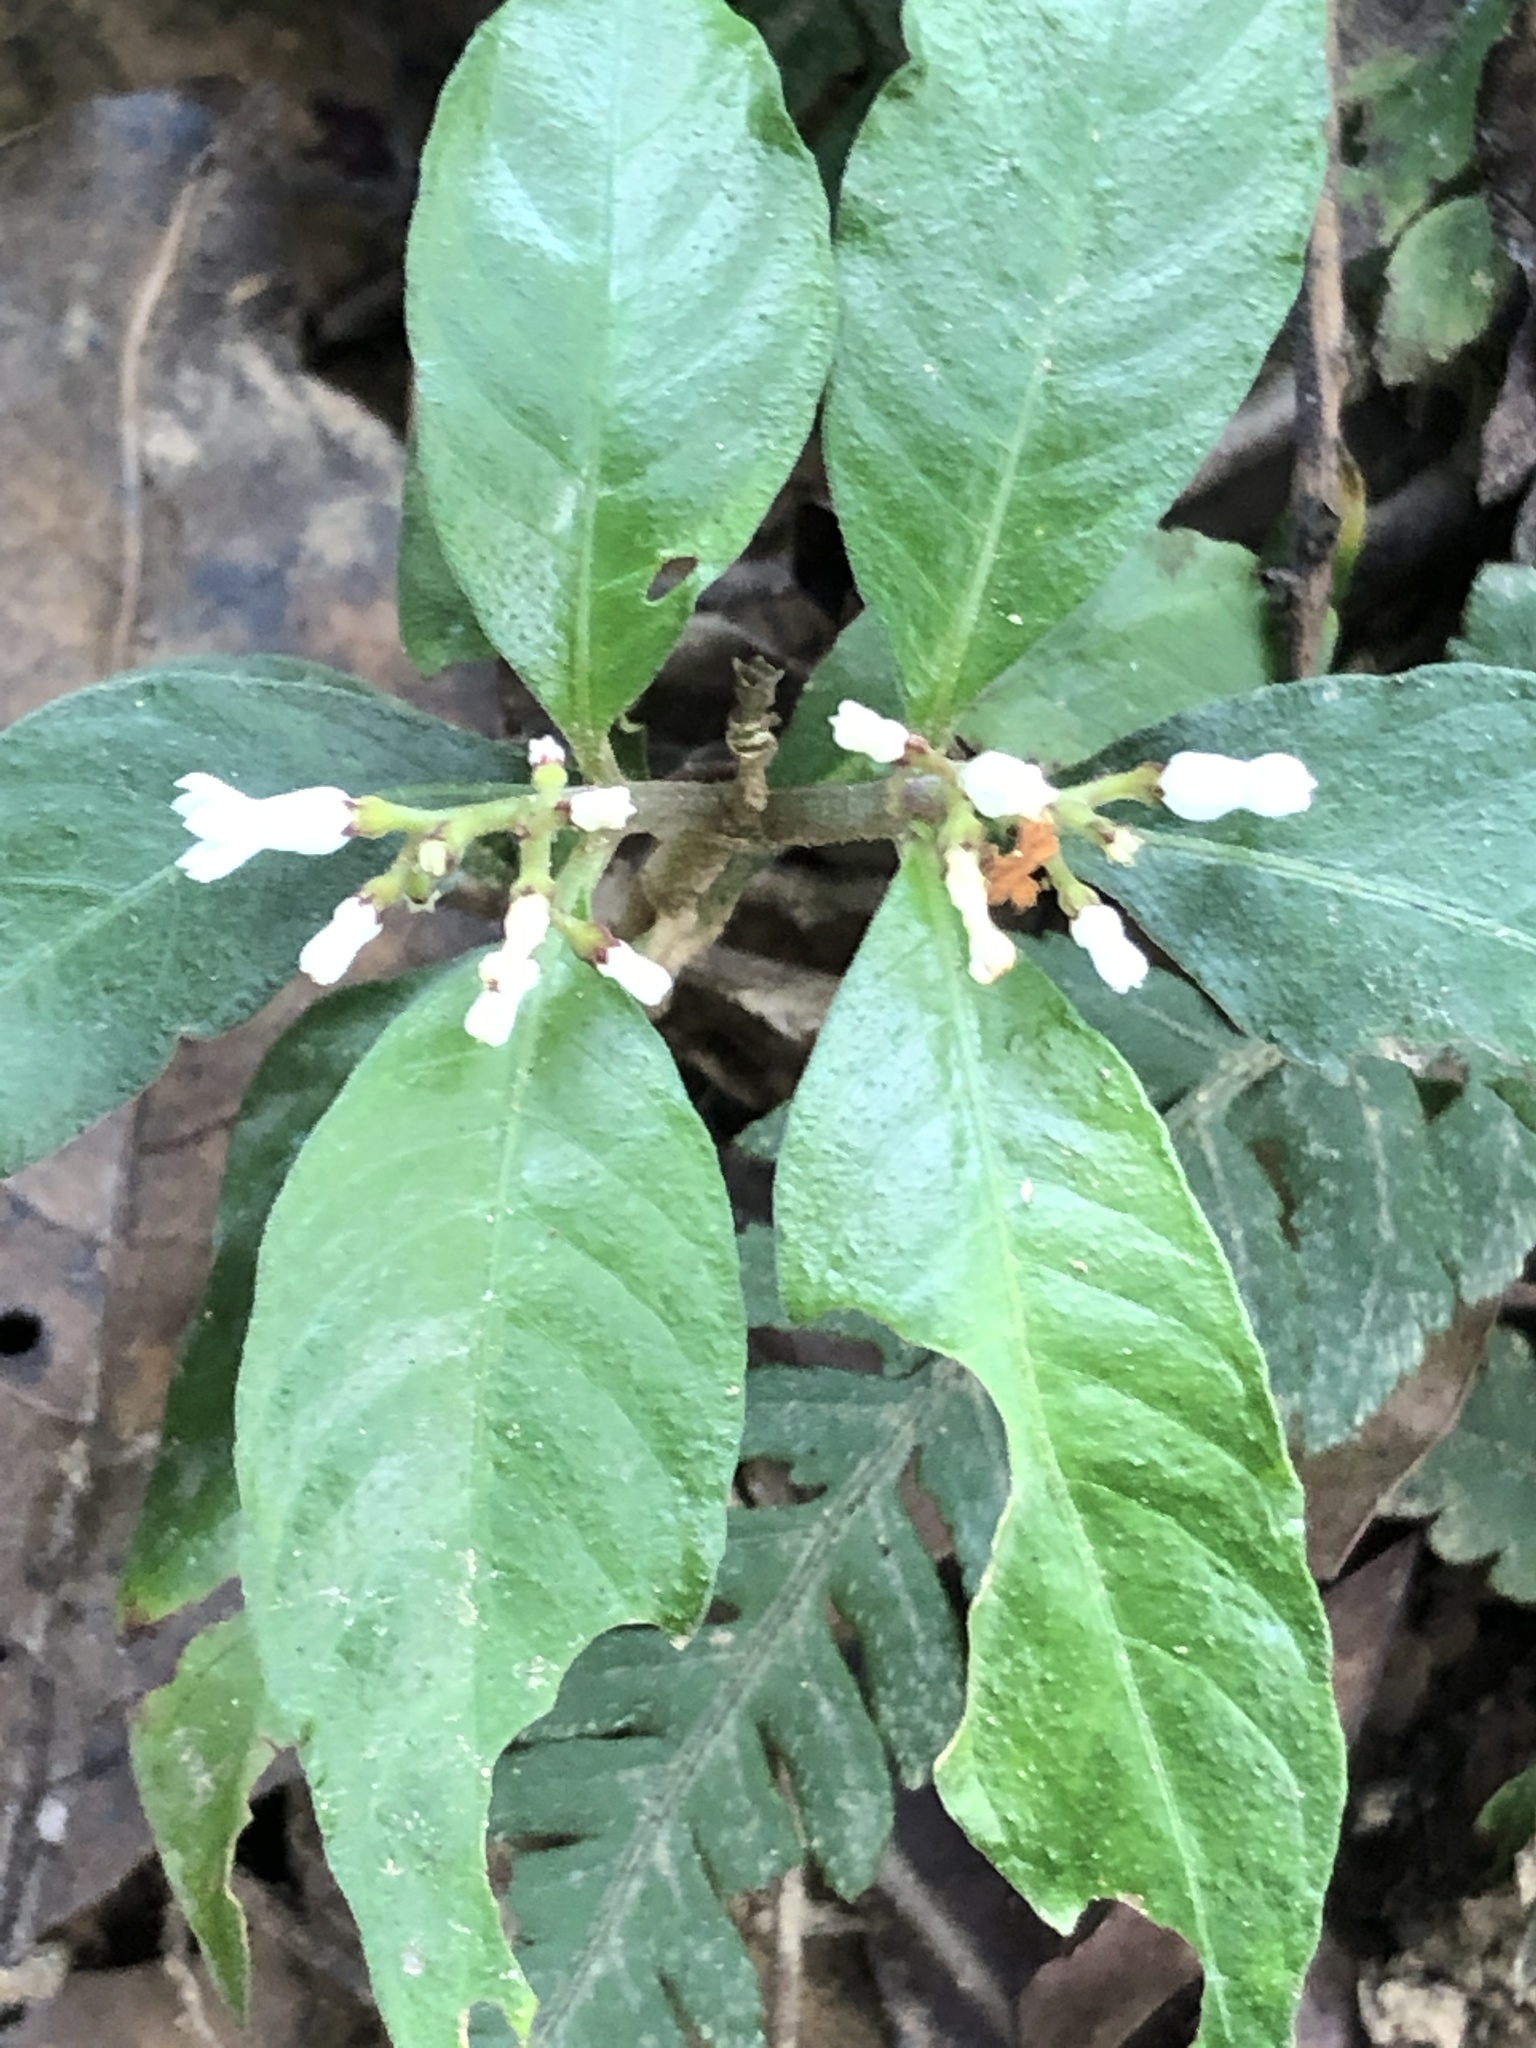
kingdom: Plantae
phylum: Tracheophyta
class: Magnoliopsida
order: Gentianales
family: Rubiaceae
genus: Ophiorrhiza
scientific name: Ophiorrhiza pumila
